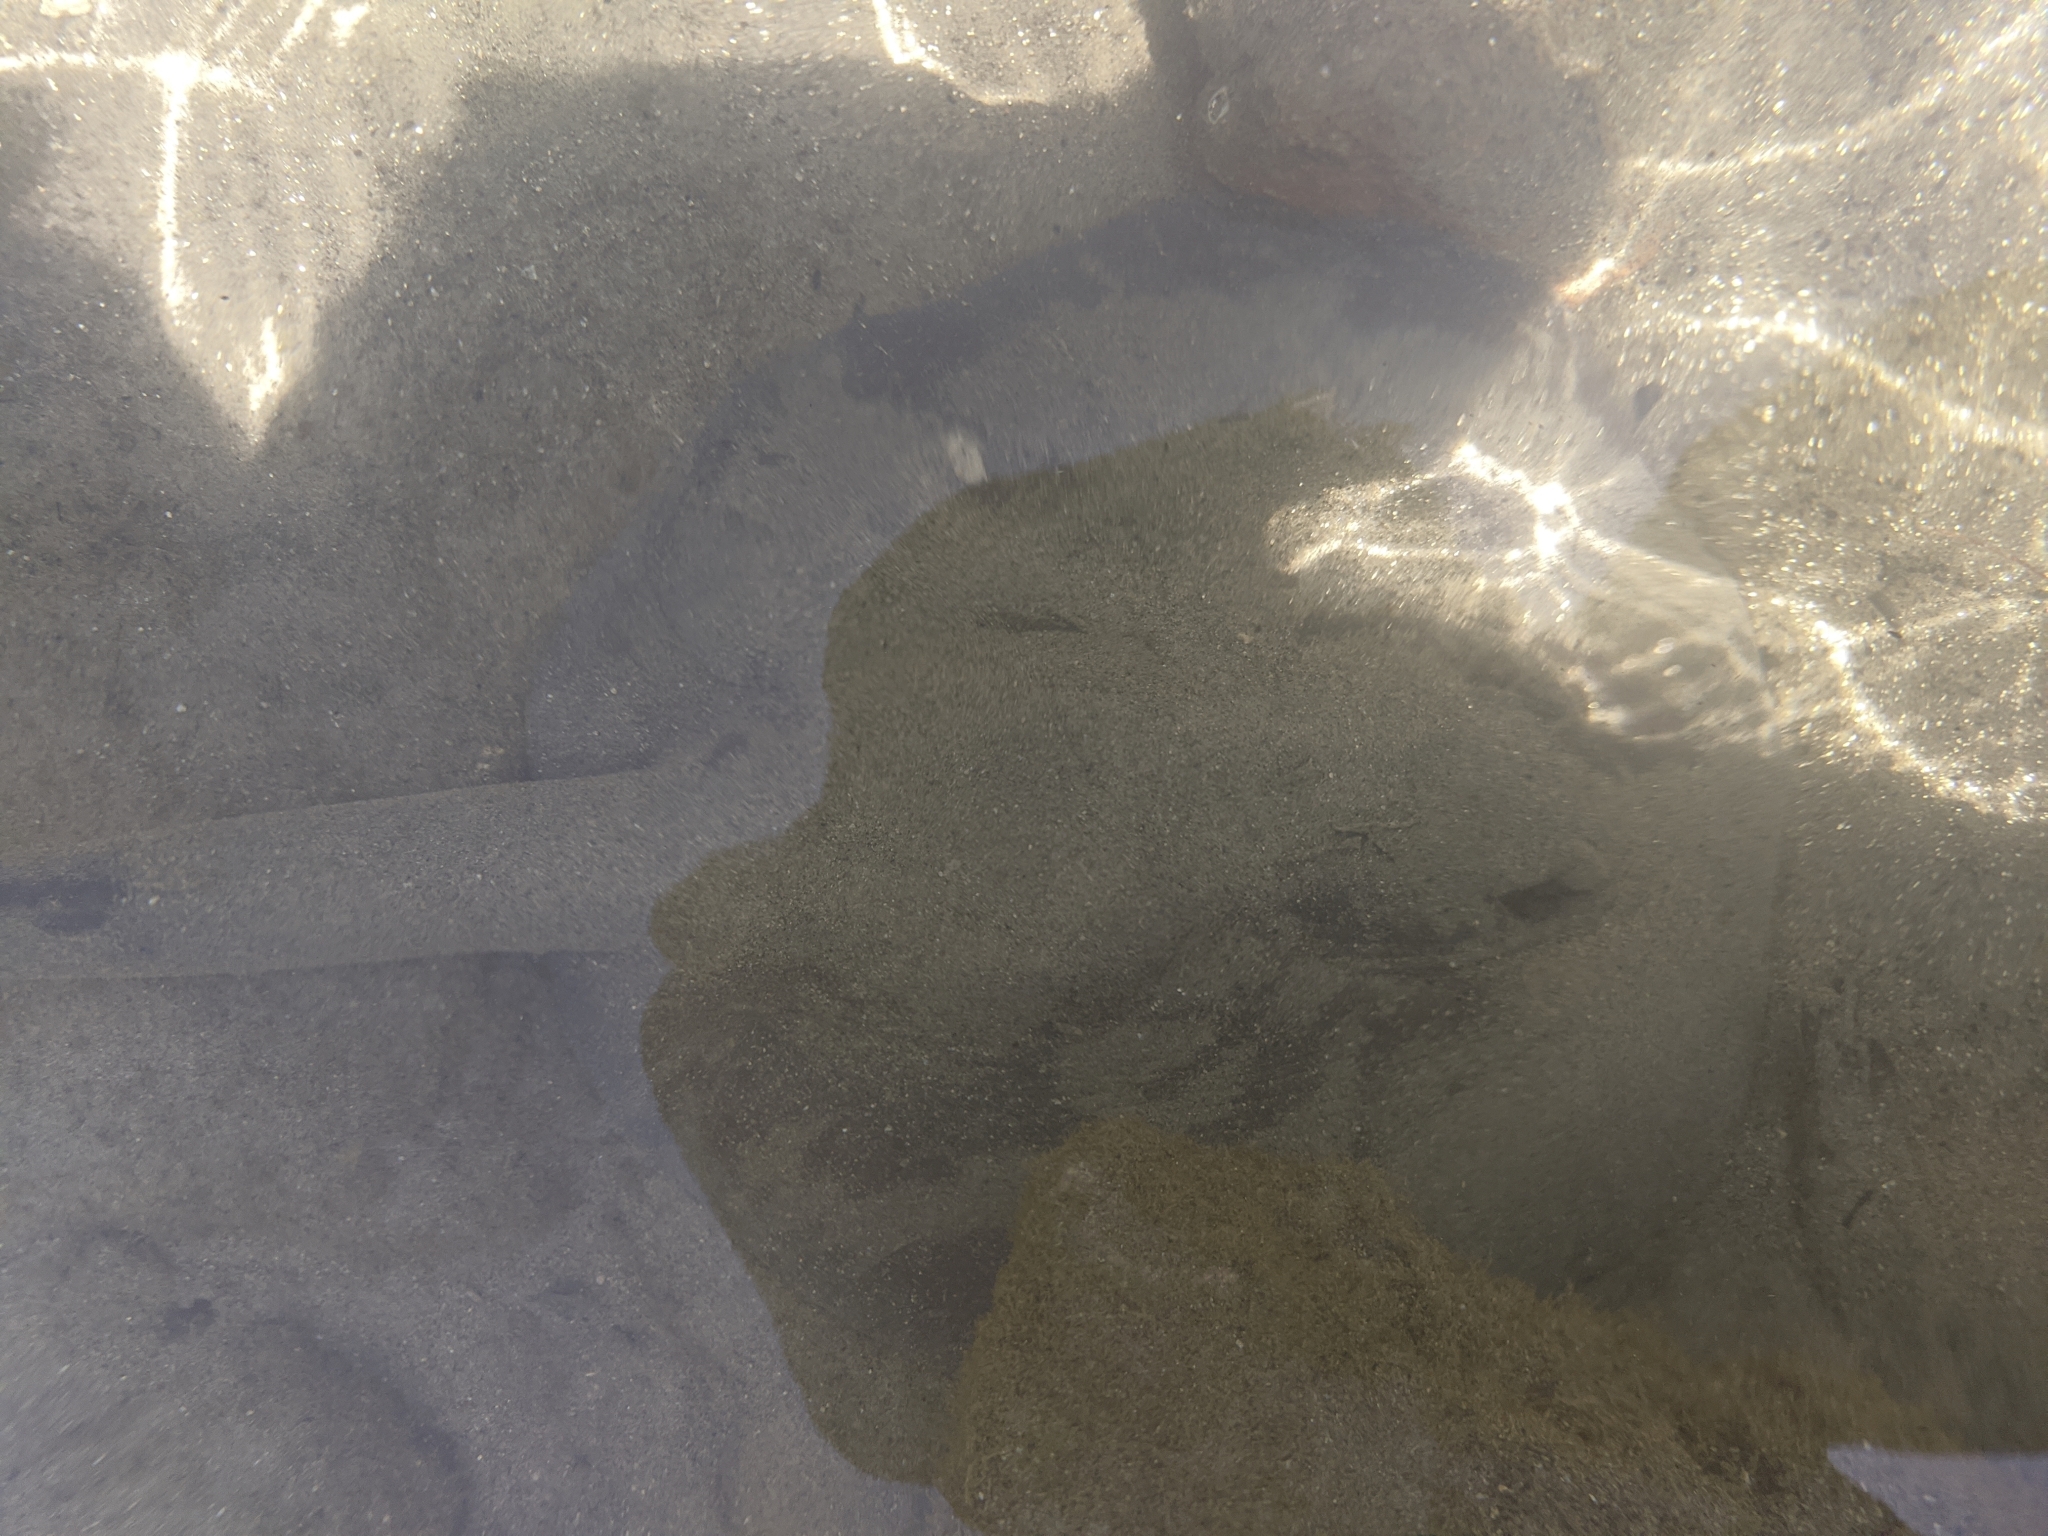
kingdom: Animalia
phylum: Chordata
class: Elasmobranchii
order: Myliobatiformes
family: Potamotrygonidae
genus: Styracura
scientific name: Styracura schmardae
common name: Atlantic chupare
